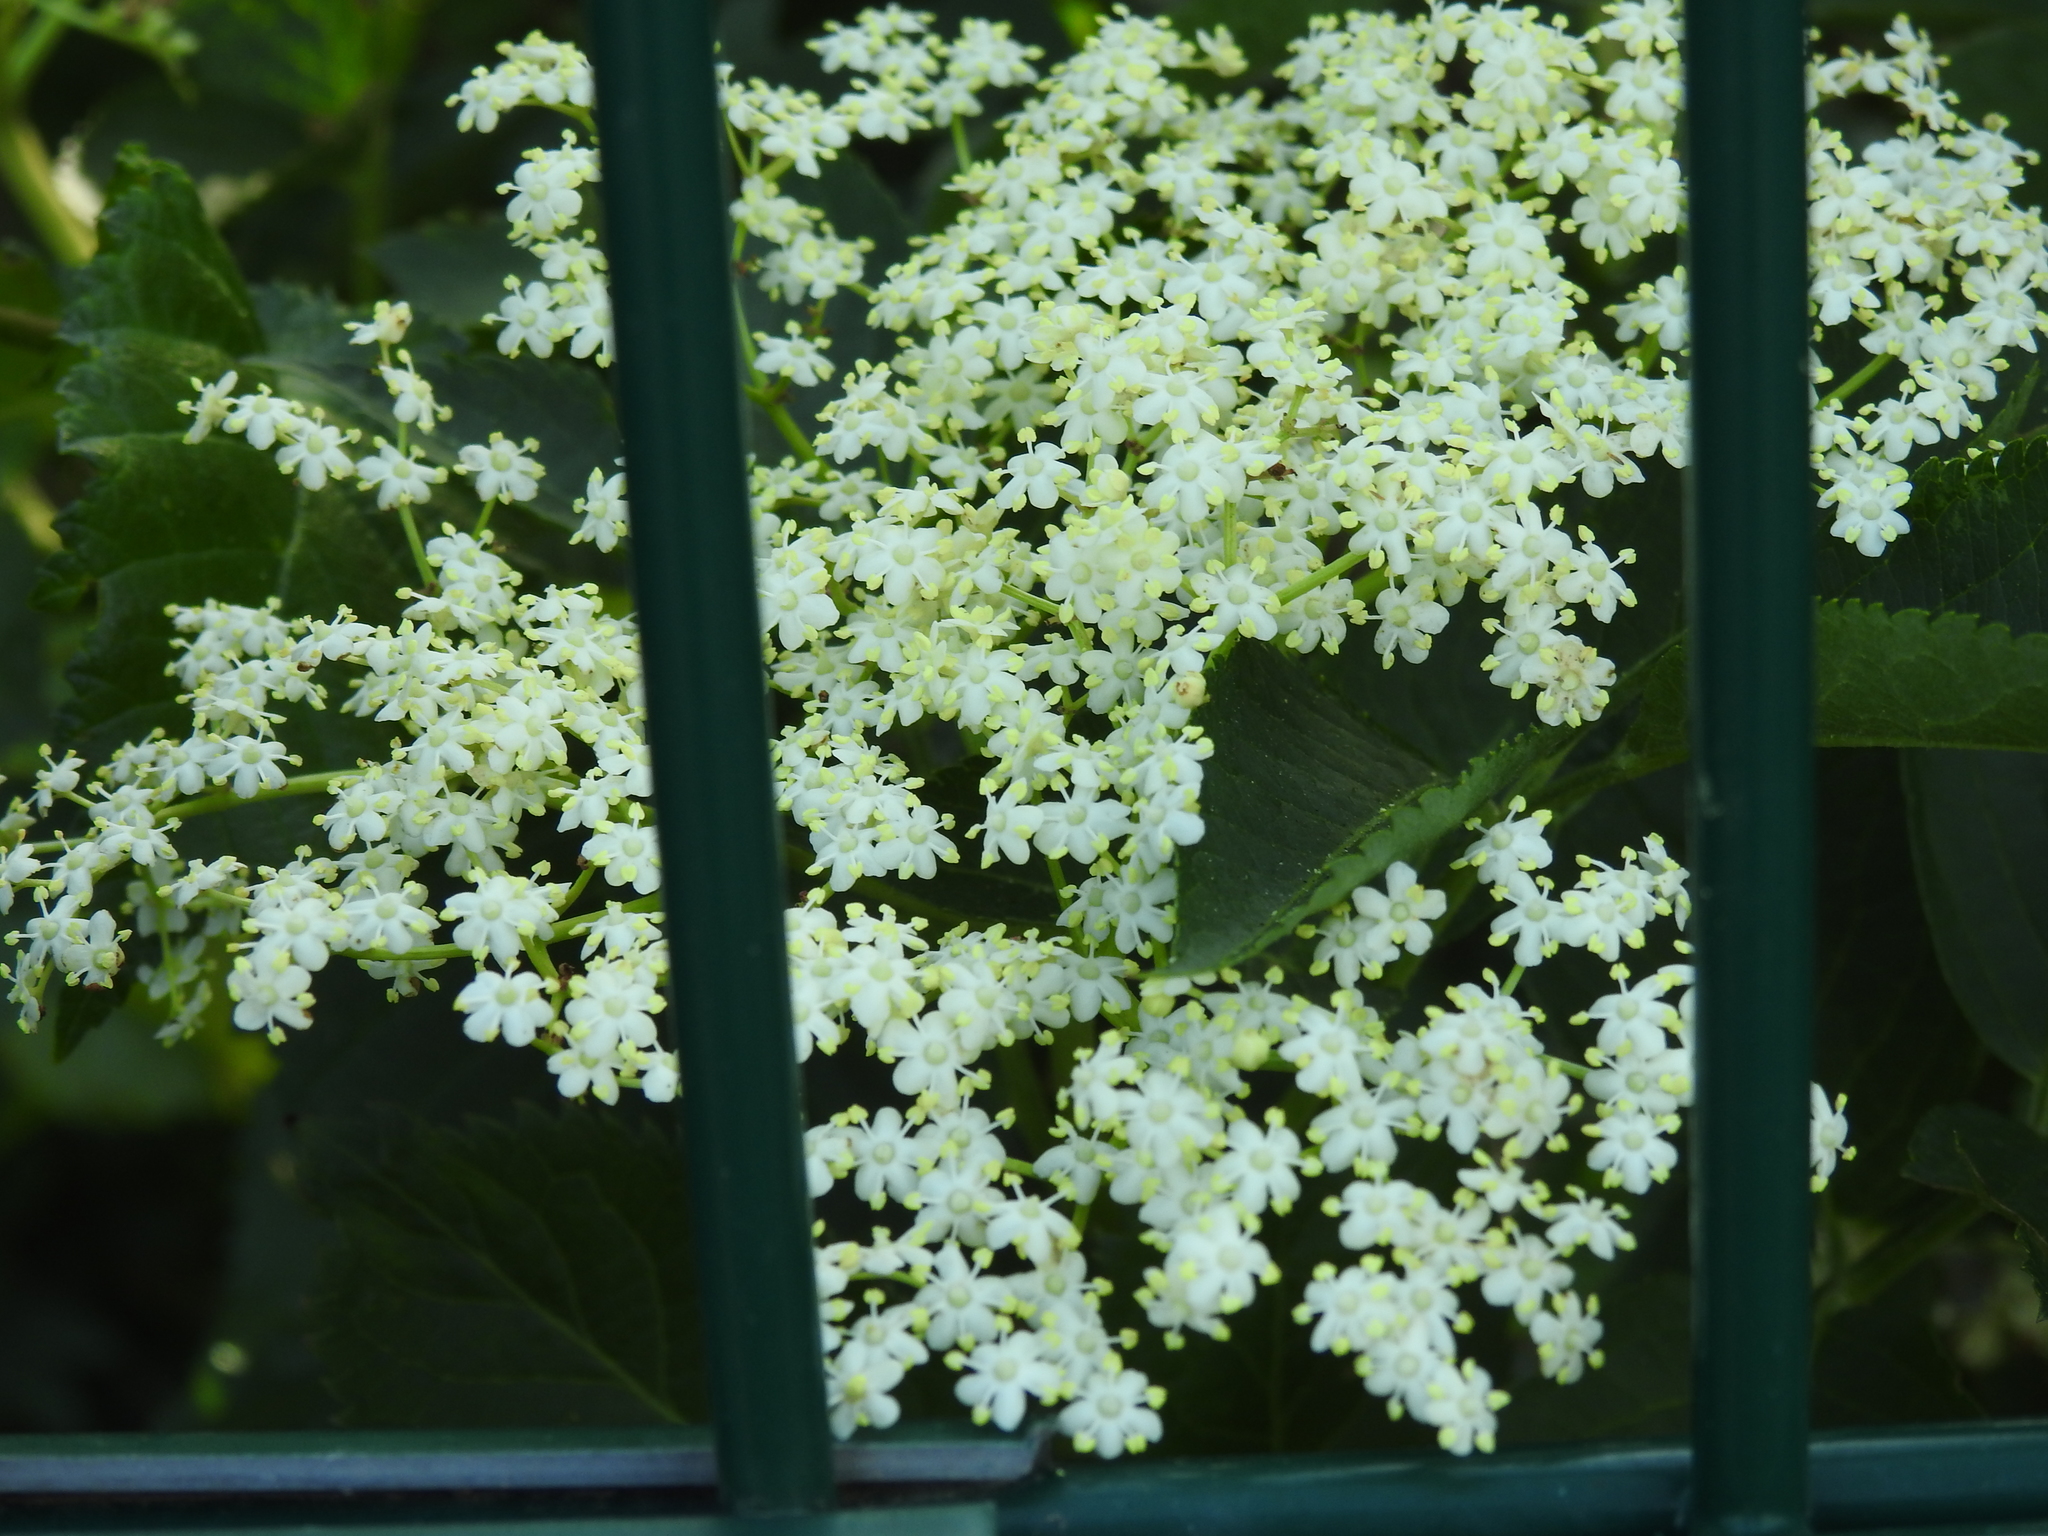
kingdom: Plantae
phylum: Tracheophyta
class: Magnoliopsida
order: Dipsacales
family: Viburnaceae
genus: Sambucus
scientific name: Sambucus nigra
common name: Elder
